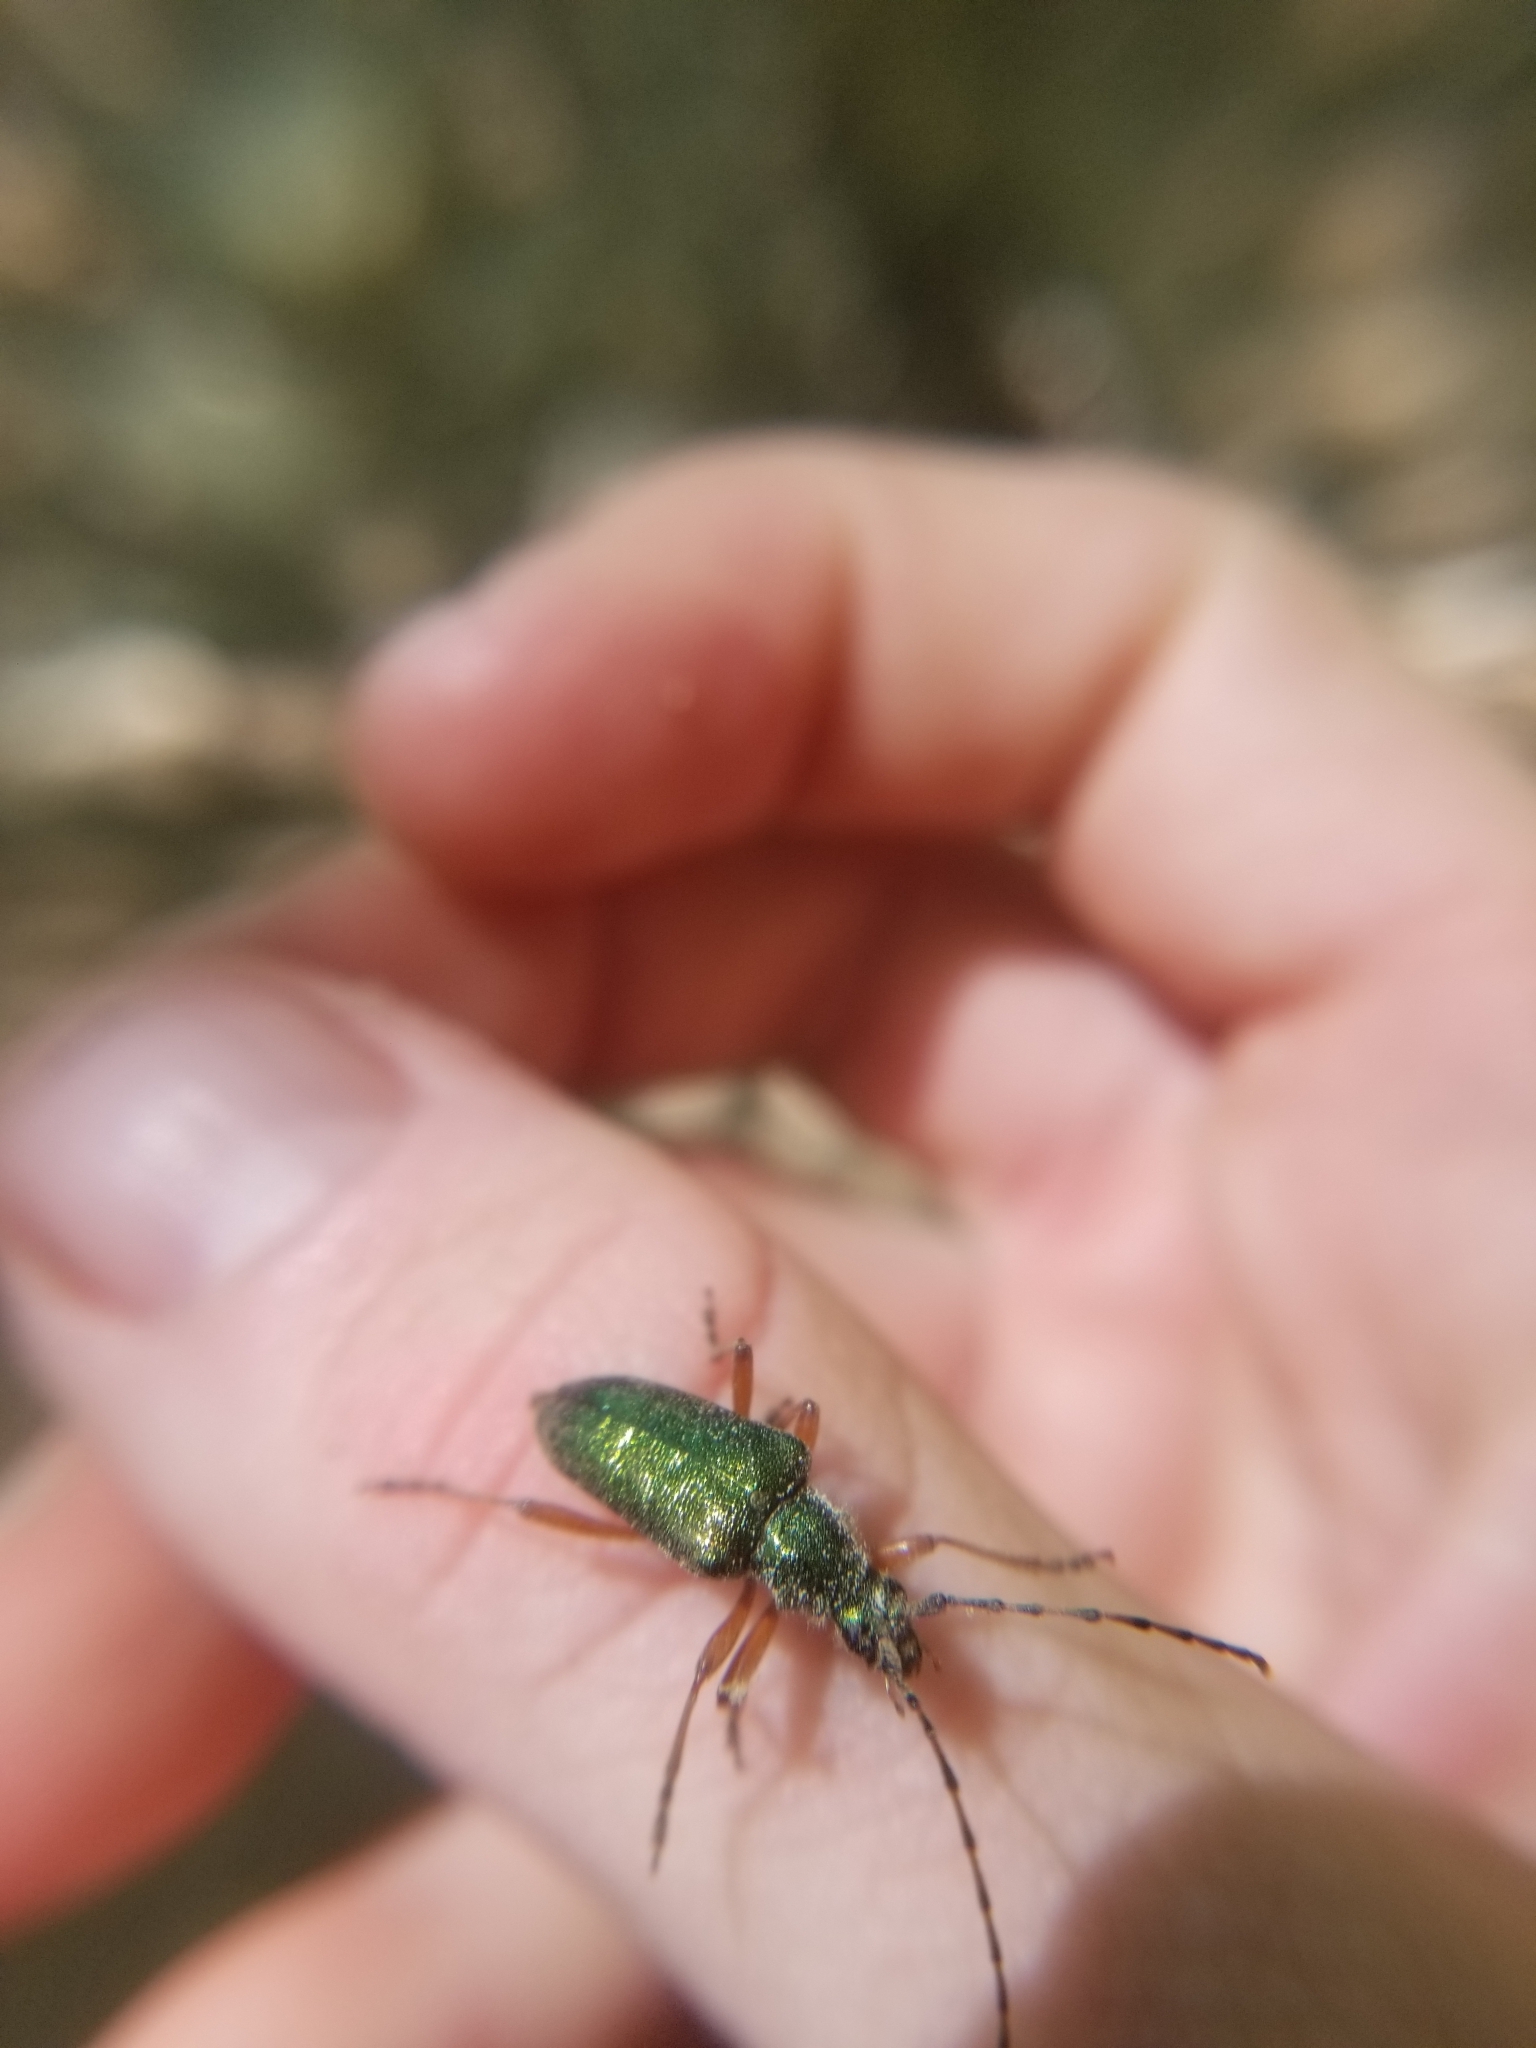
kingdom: Animalia
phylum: Arthropoda
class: Insecta
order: Coleoptera
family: Cerambycidae
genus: Anthophylax
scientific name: Anthophylax cyaneus
